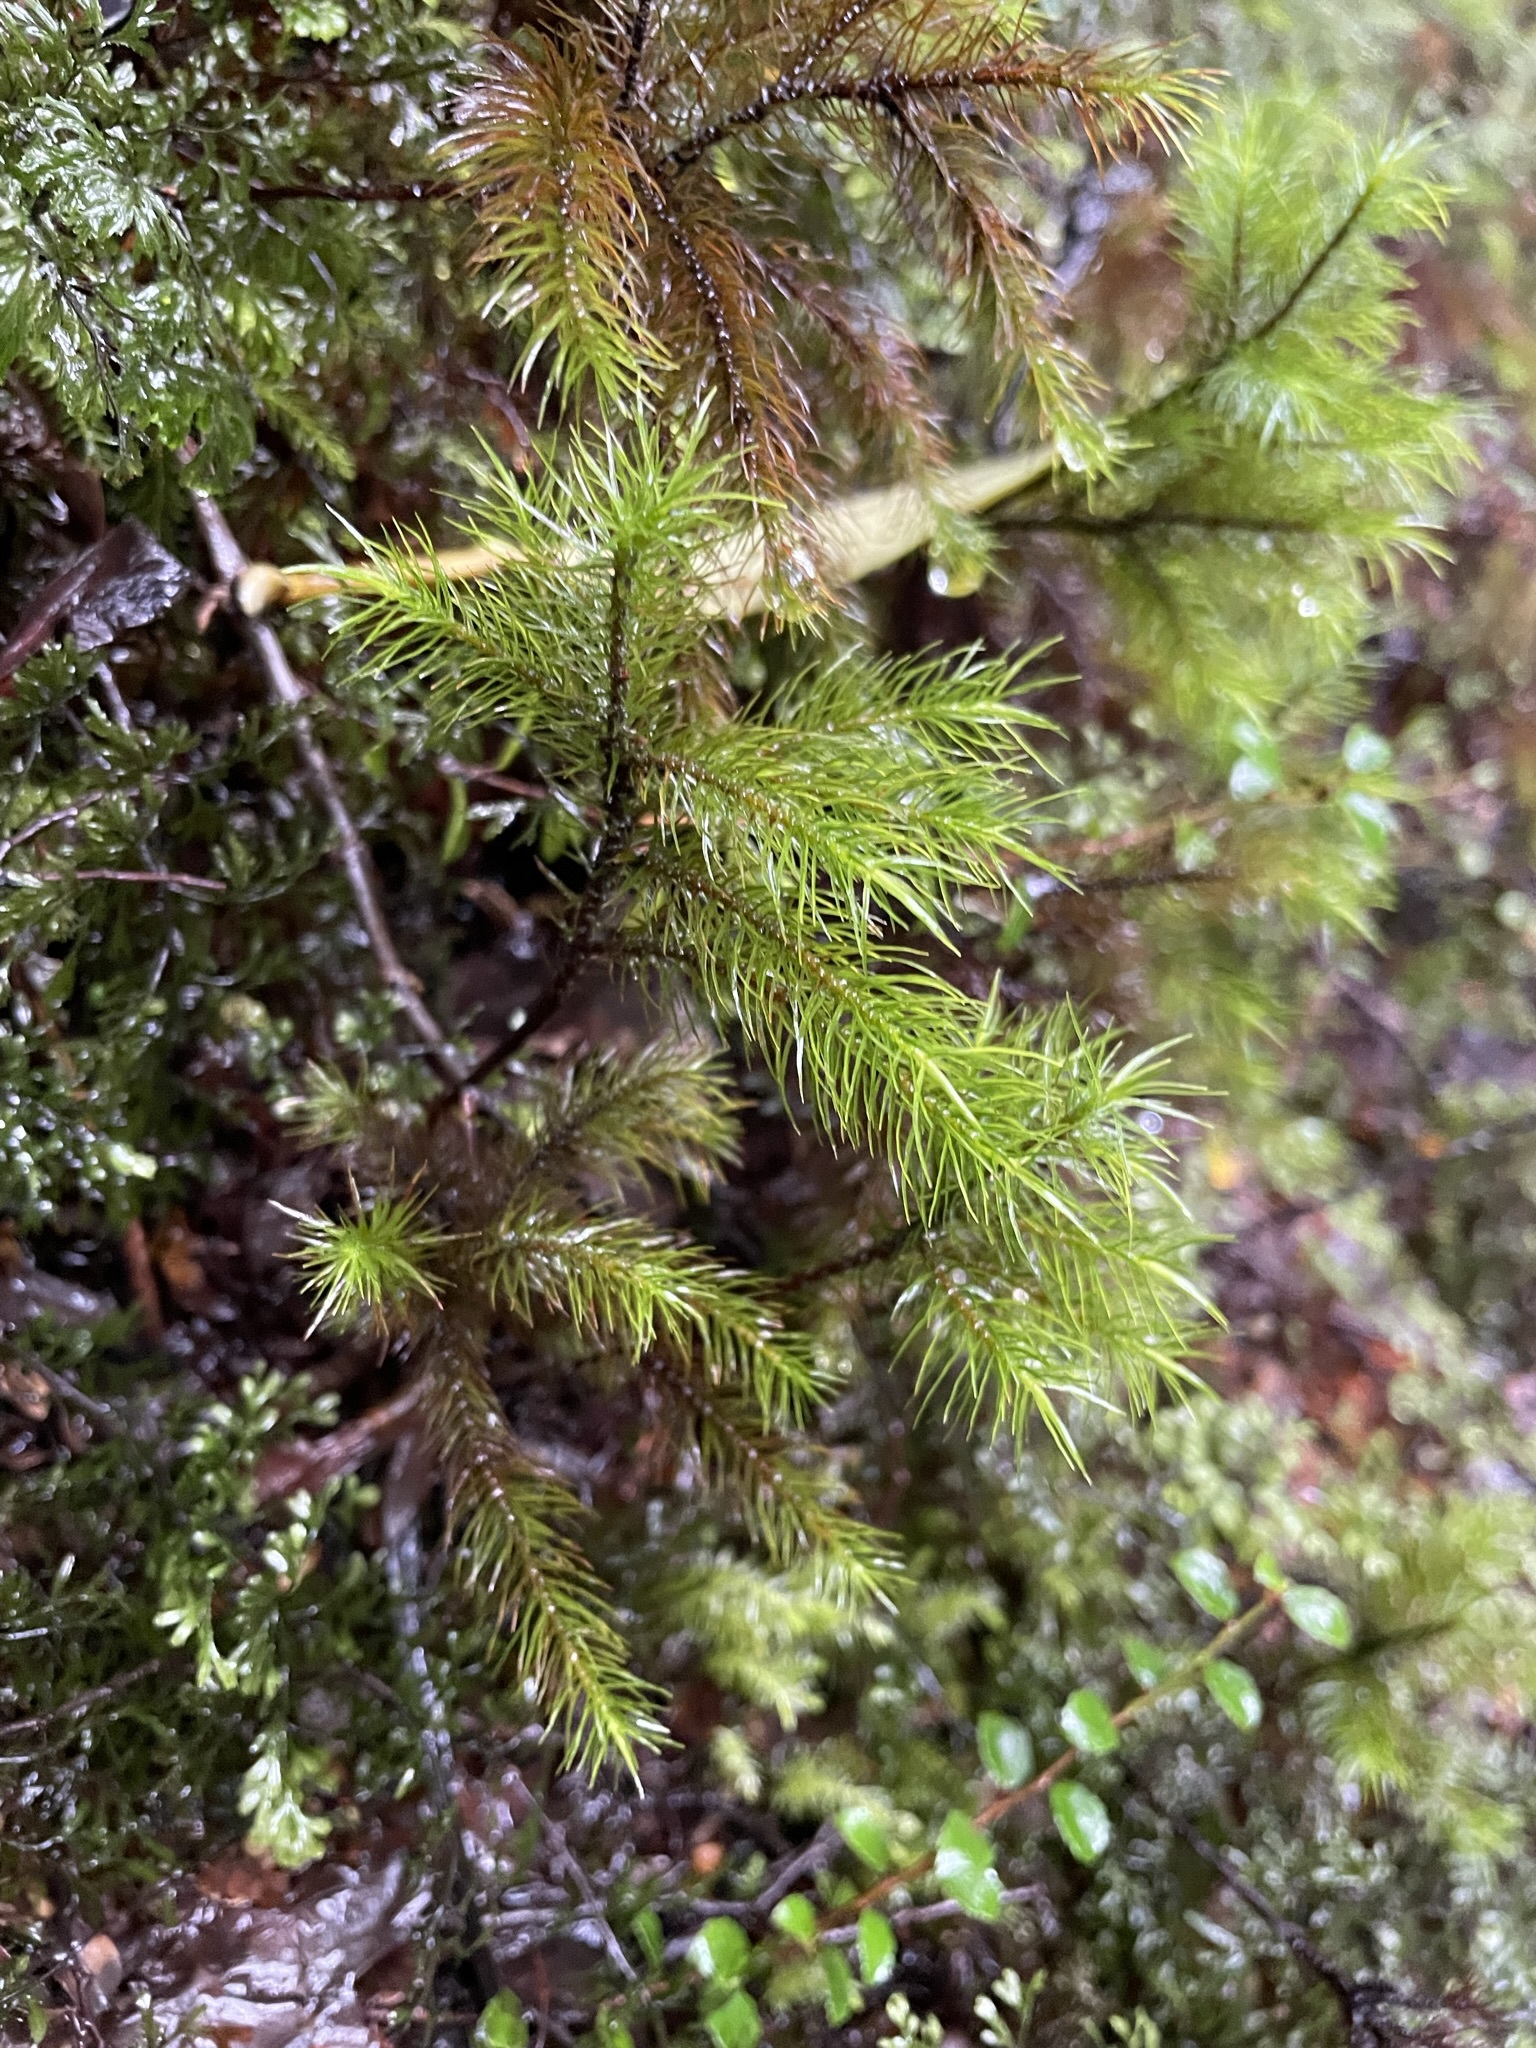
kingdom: Plantae
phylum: Bryophyta
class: Polytrichopsida
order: Polytrichales
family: Polytrichaceae
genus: Dendroligotrichum
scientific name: Dendroligotrichum tongariroense
